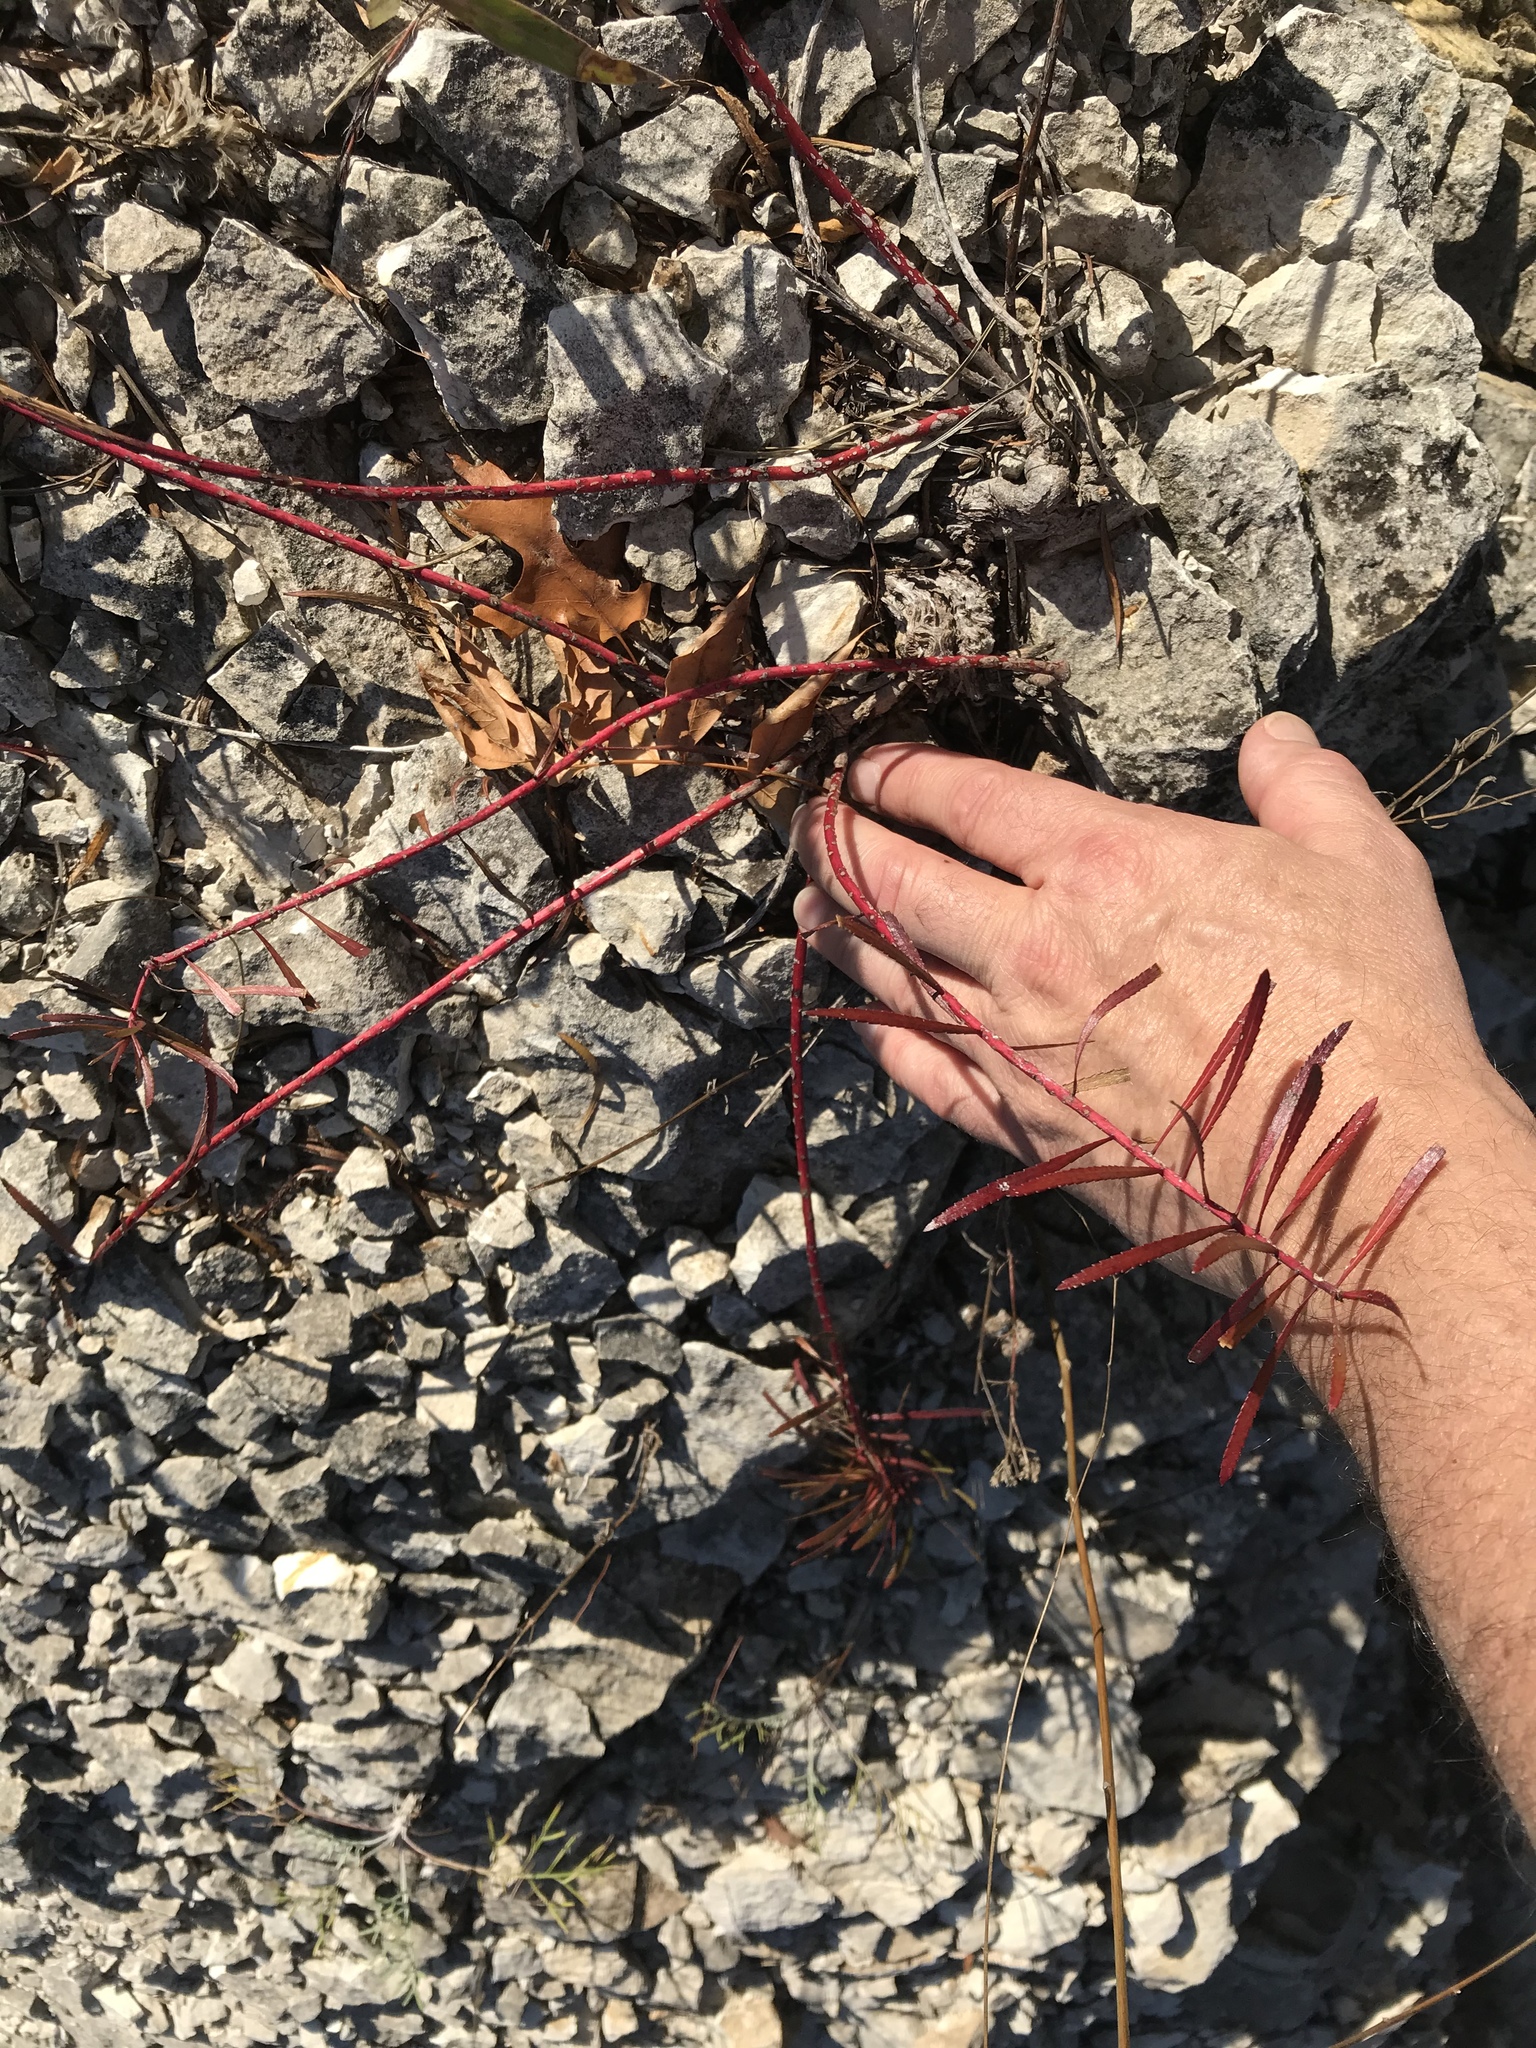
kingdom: Plantae
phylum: Tracheophyta
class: Magnoliopsida
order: Malpighiales
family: Euphorbiaceae
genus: Stillingia
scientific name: Stillingia texana
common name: Texas stillingia
